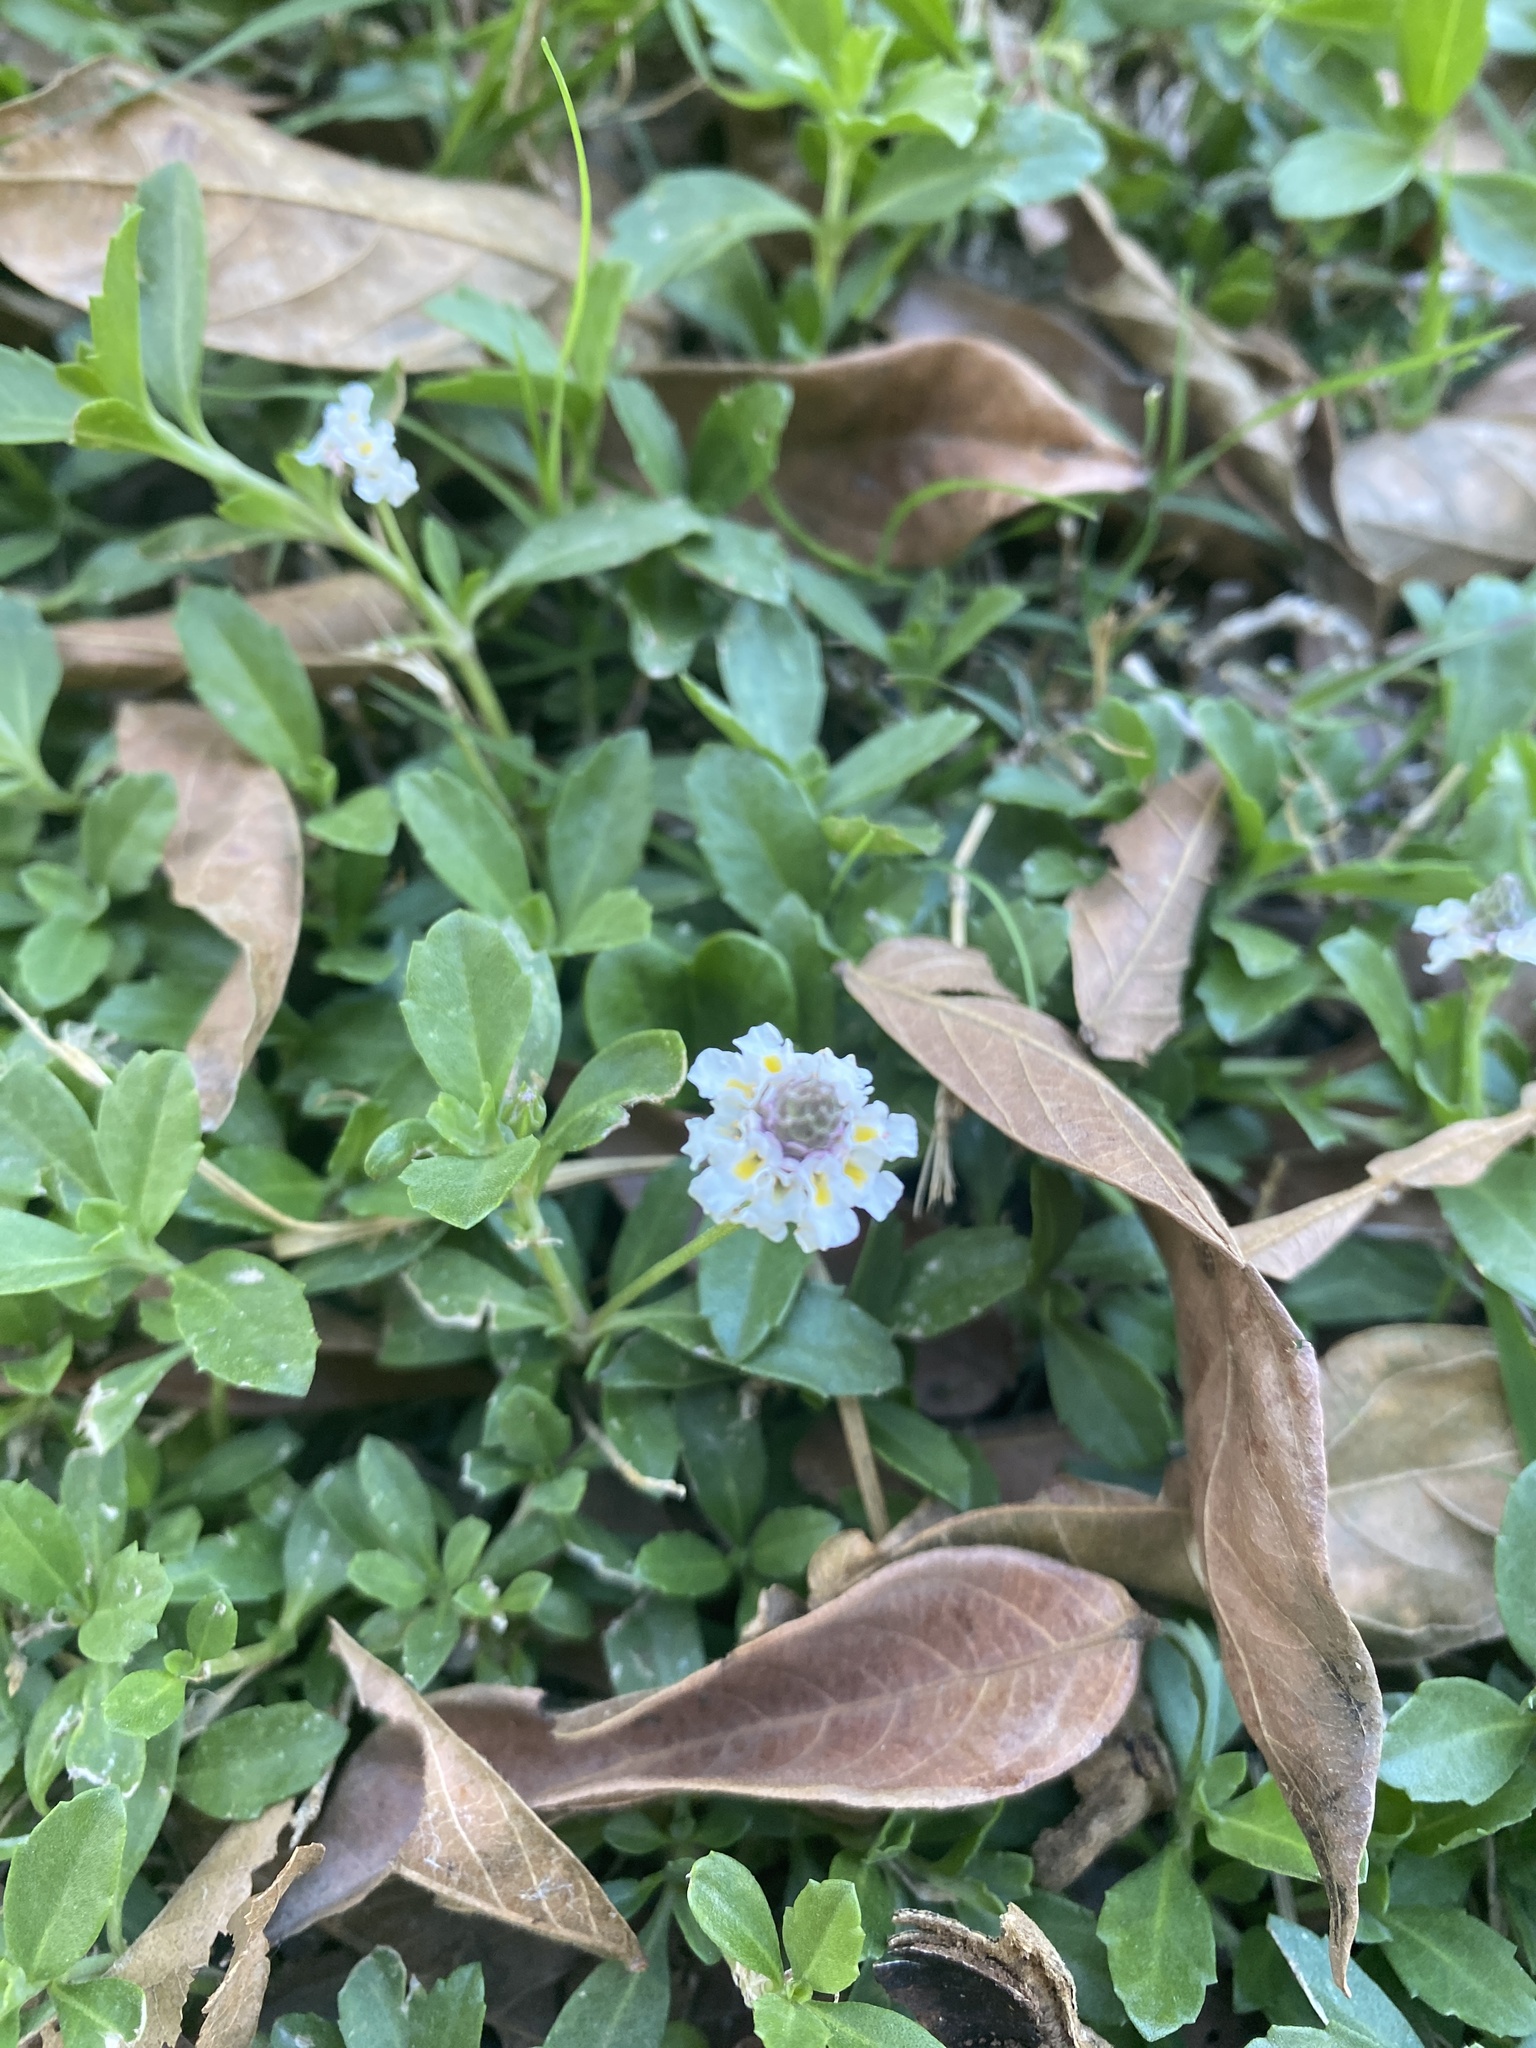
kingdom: Plantae
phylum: Tracheophyta
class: Magnoliopsida
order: Lamiales
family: Verbenaceae
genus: Phyla
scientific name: Phyla nodiflora
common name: Frogfruit
